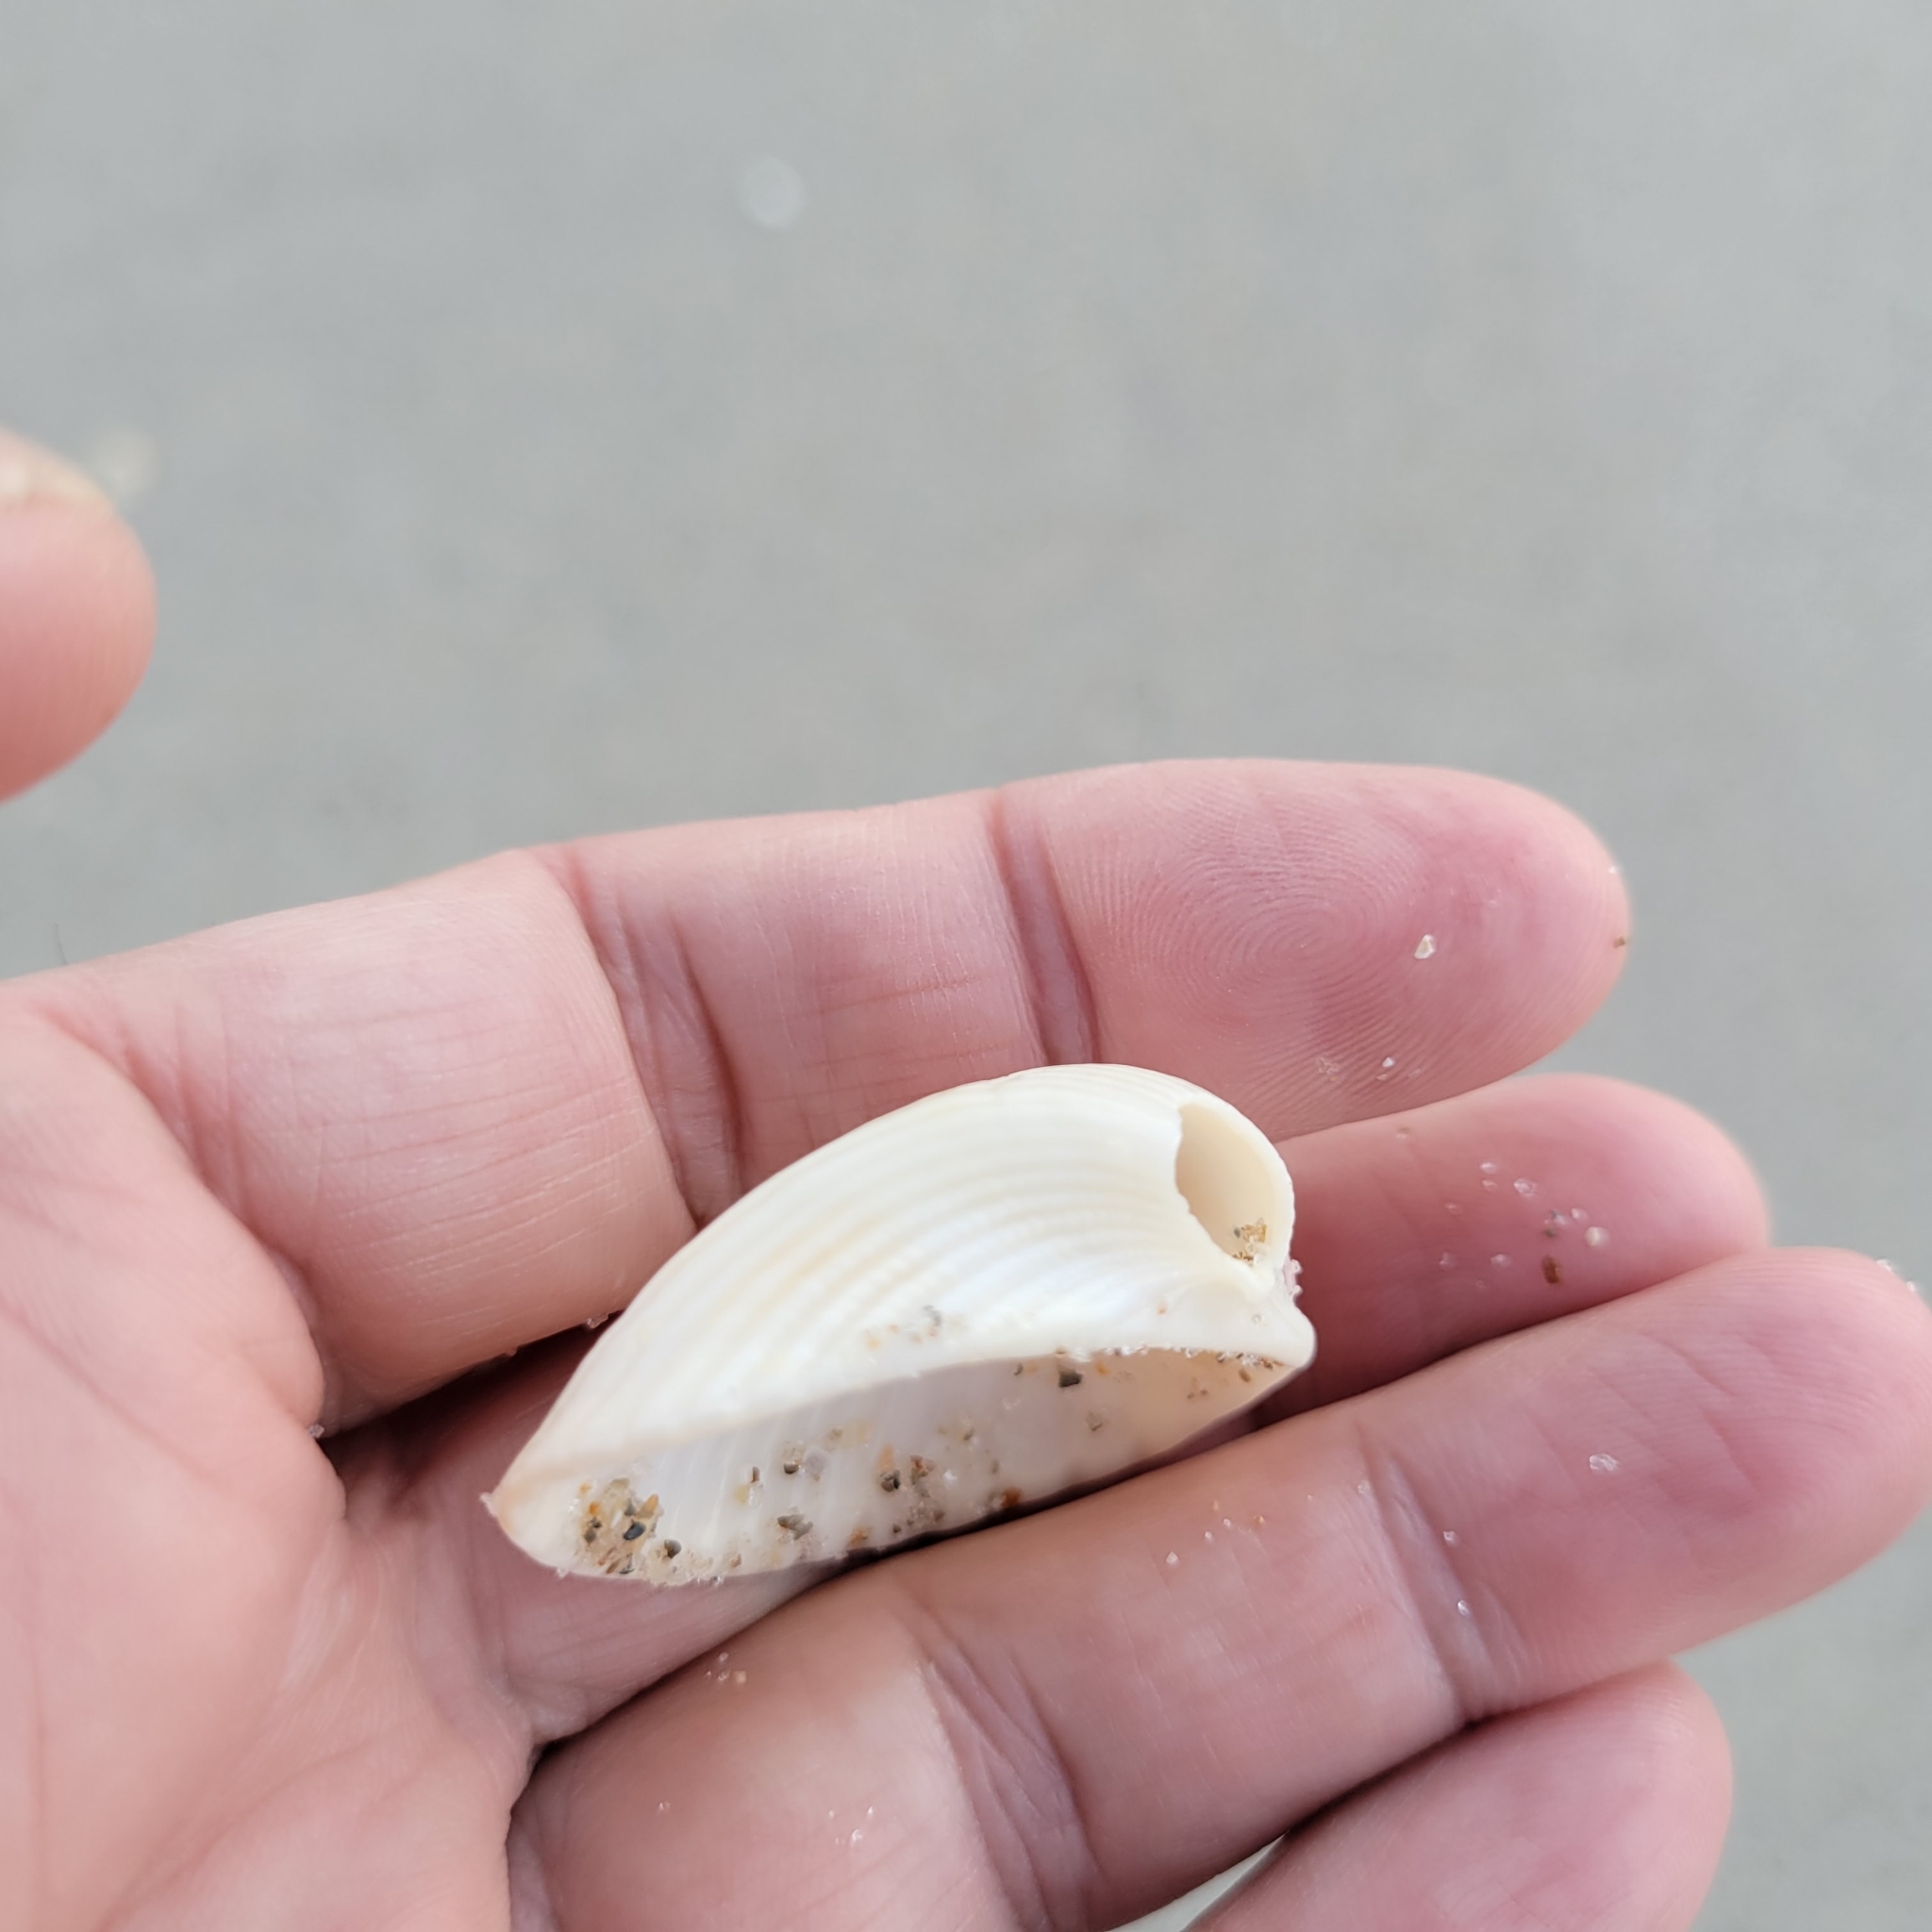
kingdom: Animalia
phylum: Mollusca
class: Bivalvia
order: Arcida
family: Arcidae
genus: Anadara
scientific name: Anadara brasiliana
